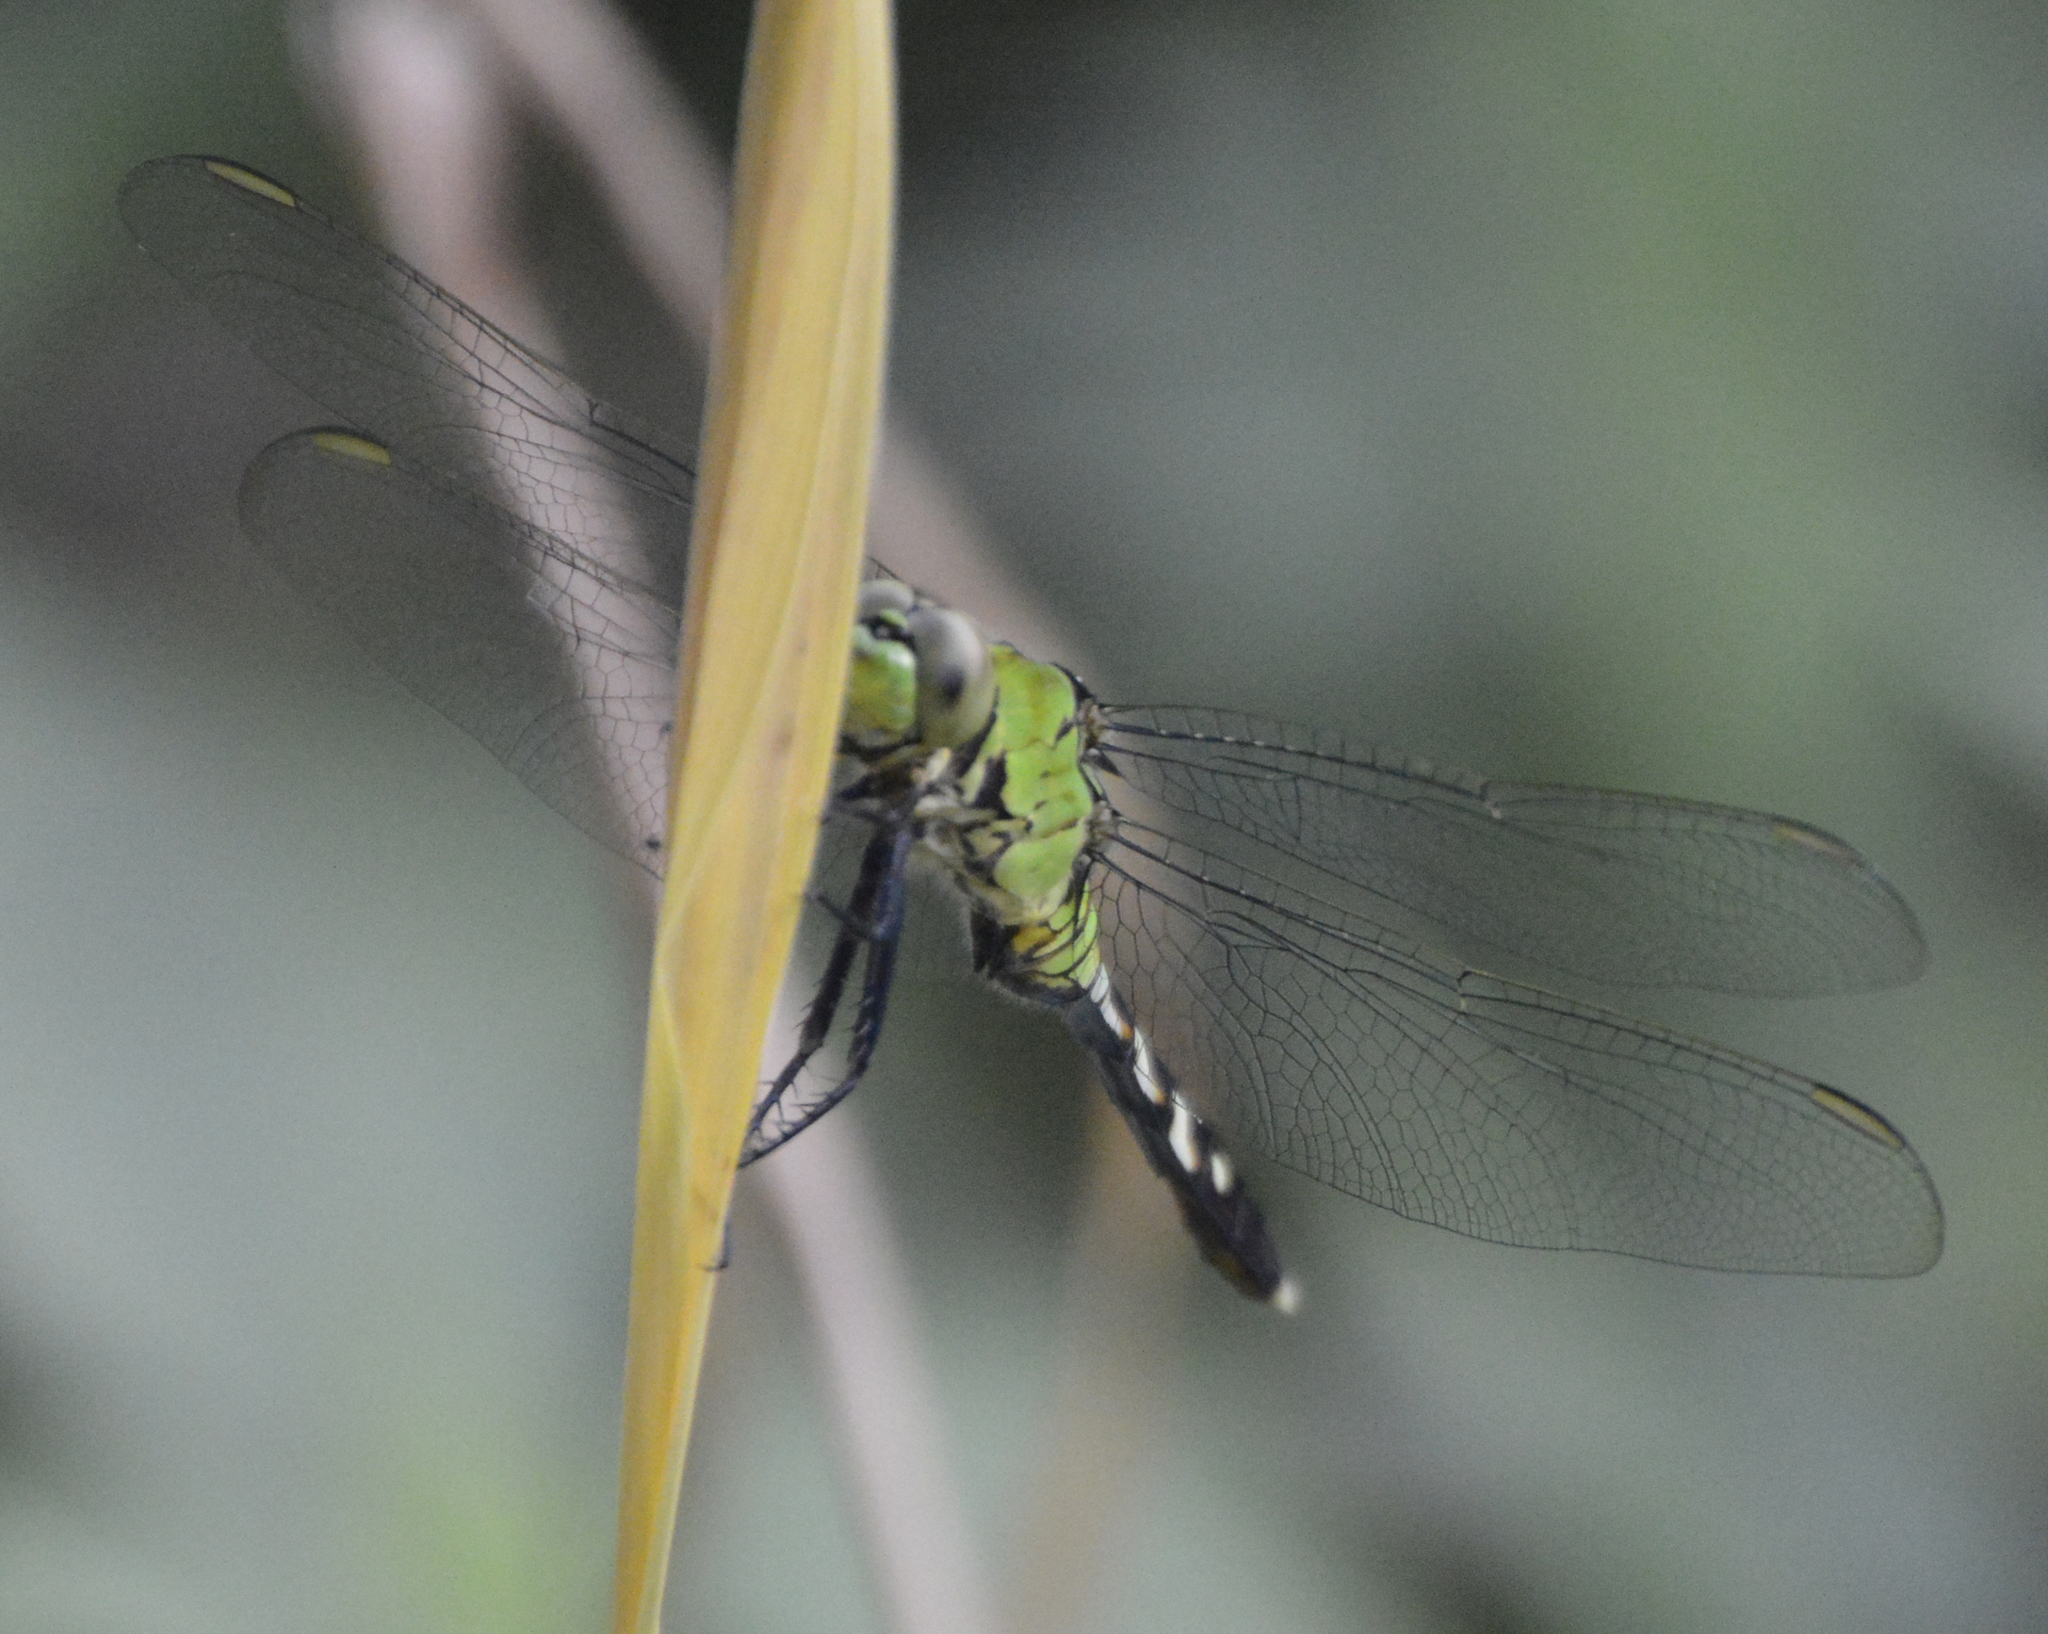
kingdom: Animalia
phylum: Arthropoda
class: Insecta
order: Odonata
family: Libellulidae
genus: Erythemis
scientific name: Erythemis simplicicollis
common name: Eastern pondhawk
